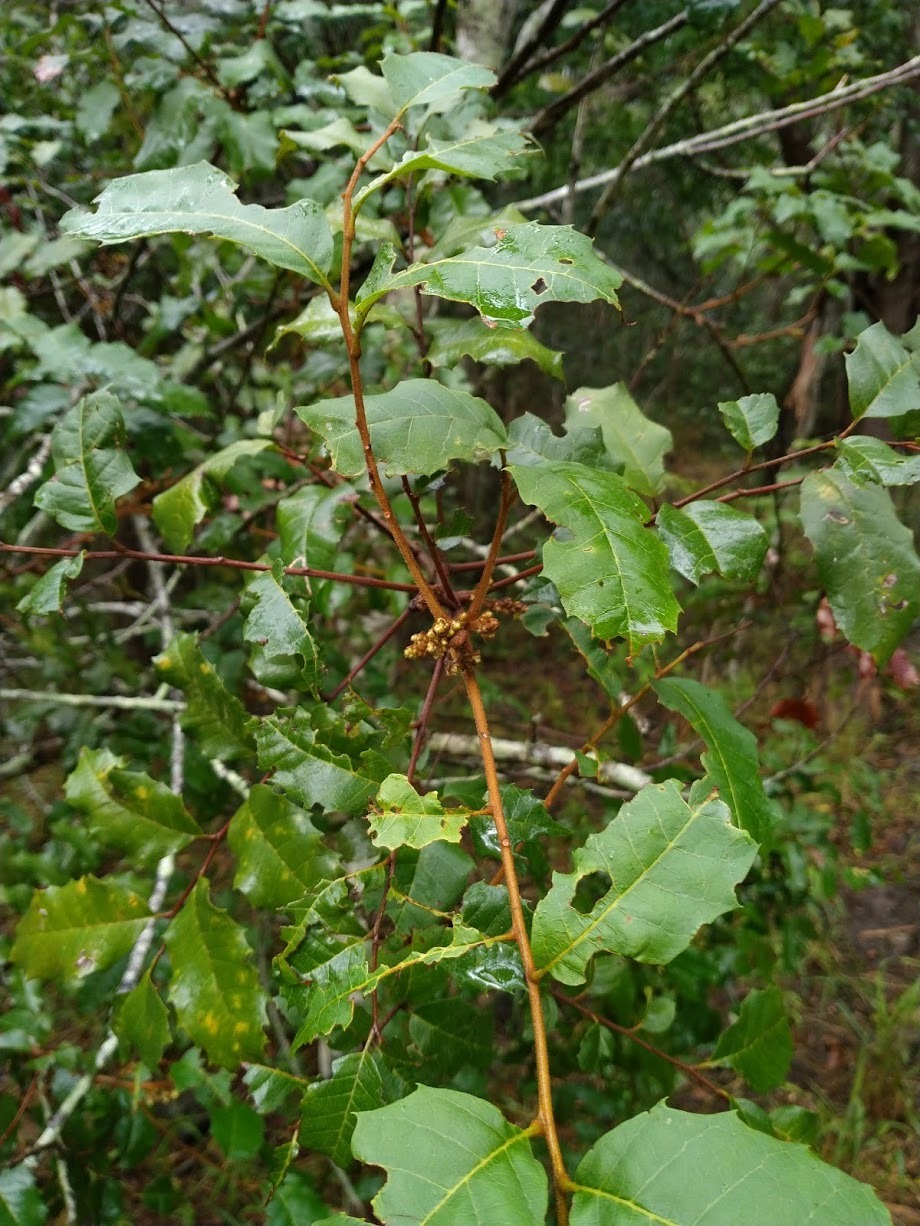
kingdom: Plantae
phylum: Tracheophyta
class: Magnoliopsida
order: Sapindales
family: Sapindaceae
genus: Cupaniopsis
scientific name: Cupaniopsis serrata
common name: Rusty tuckeroo
